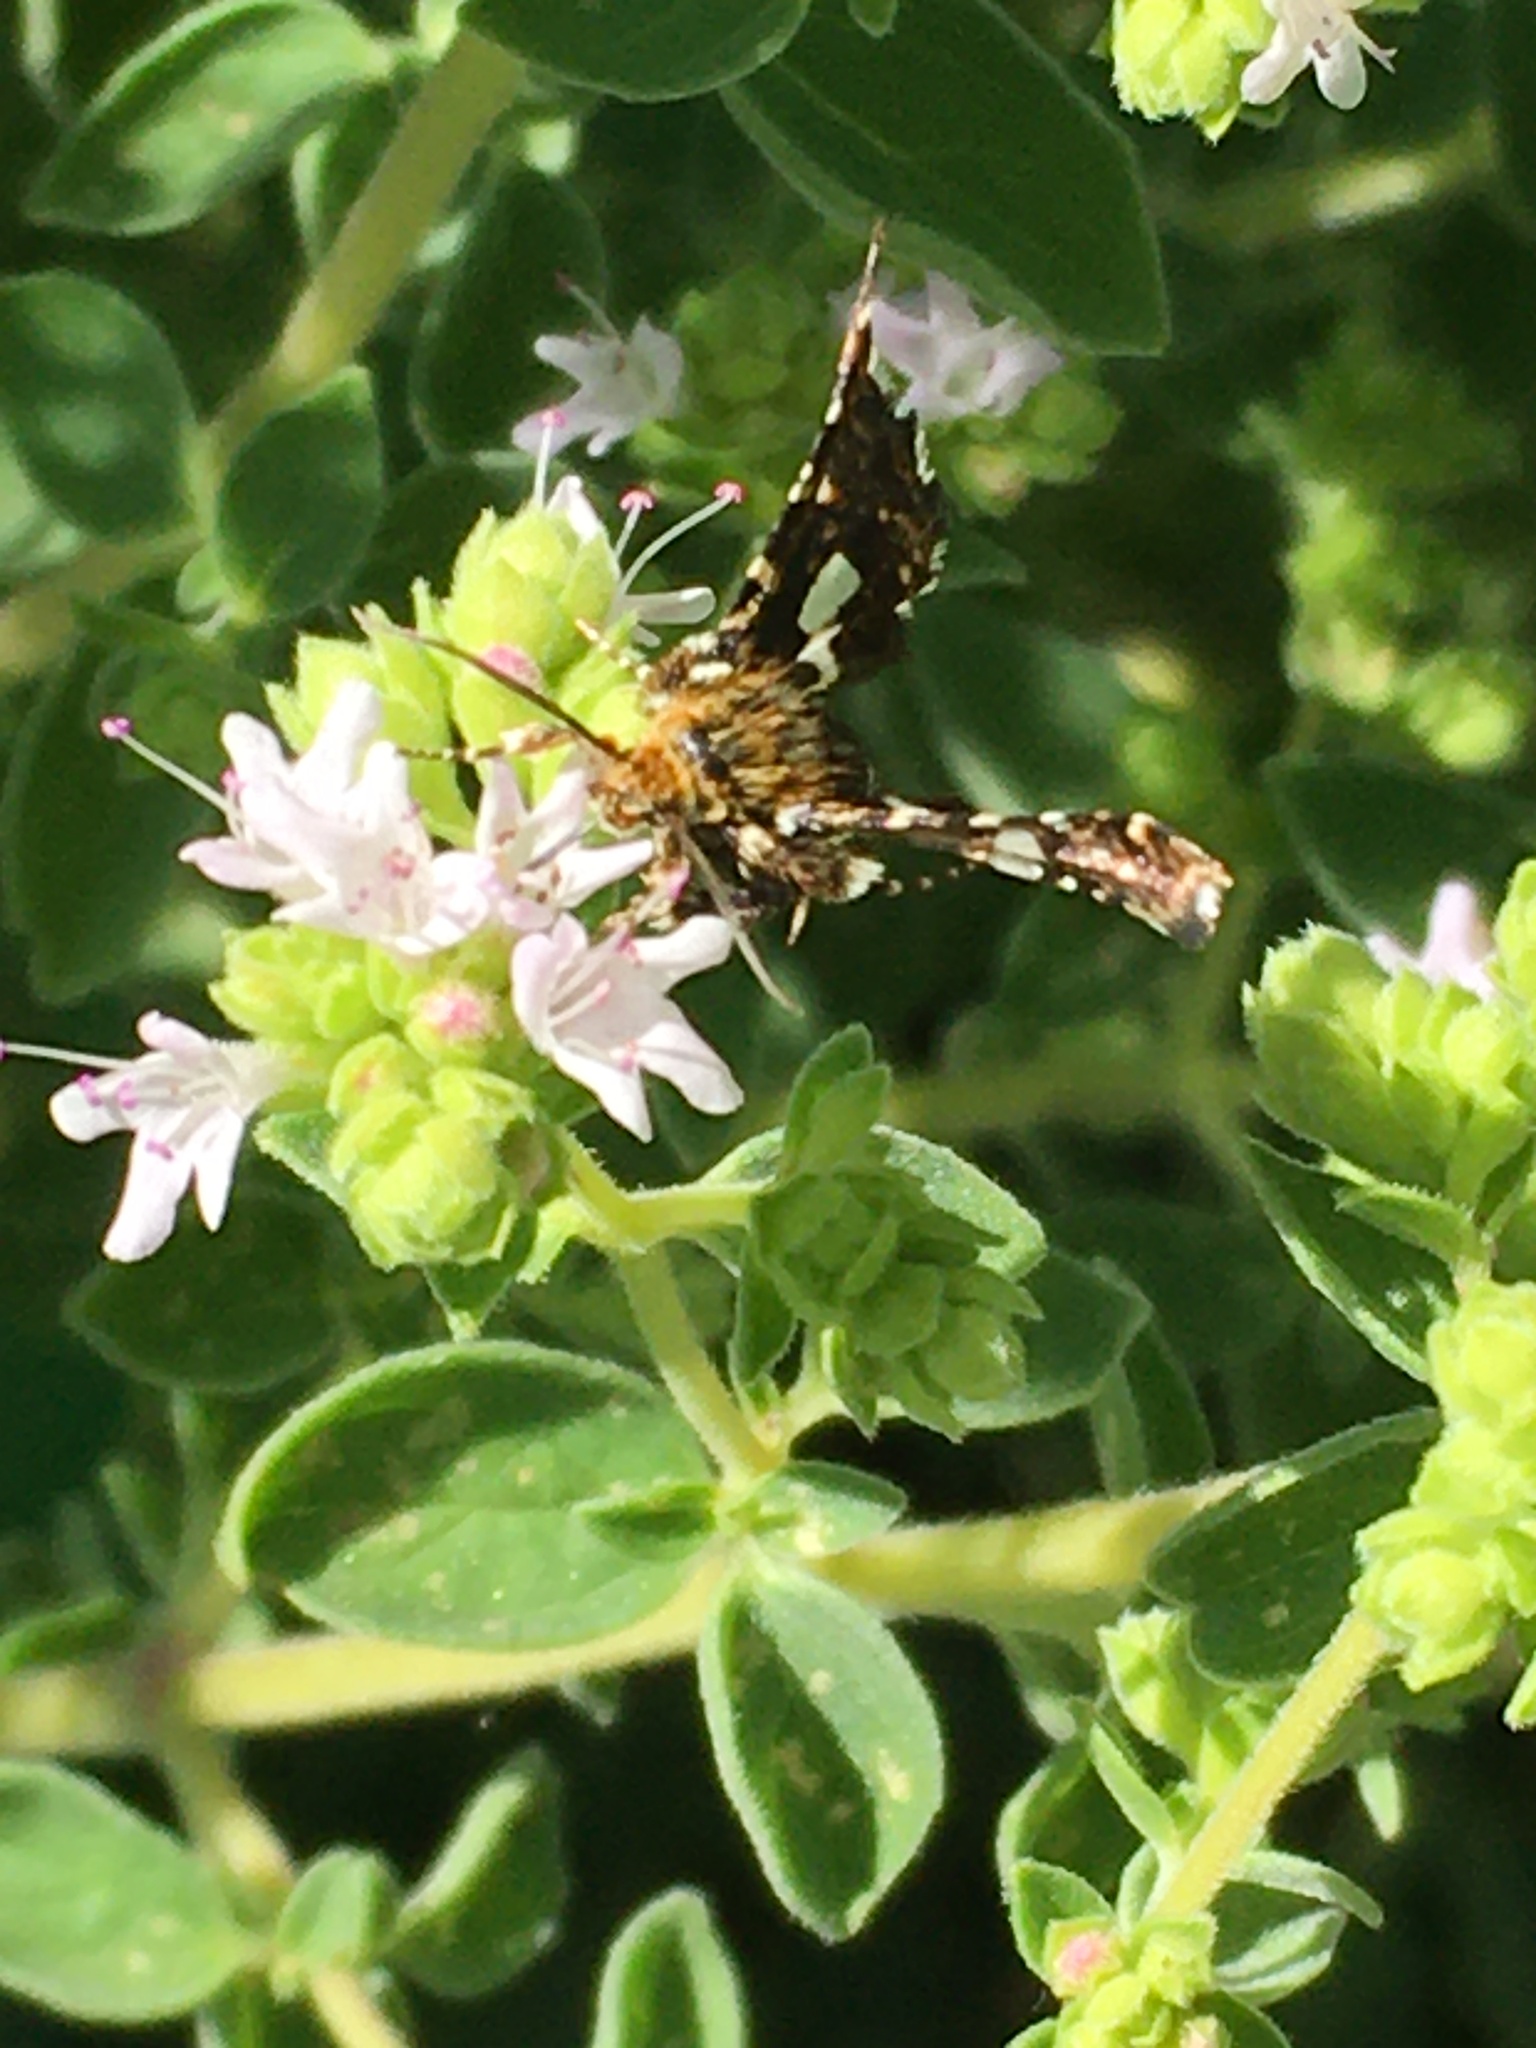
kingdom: Animalia
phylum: Arthropoda
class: Insecta
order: Lepidoptera
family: Thyrididae
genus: Thyris
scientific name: Thyris fenestrella
